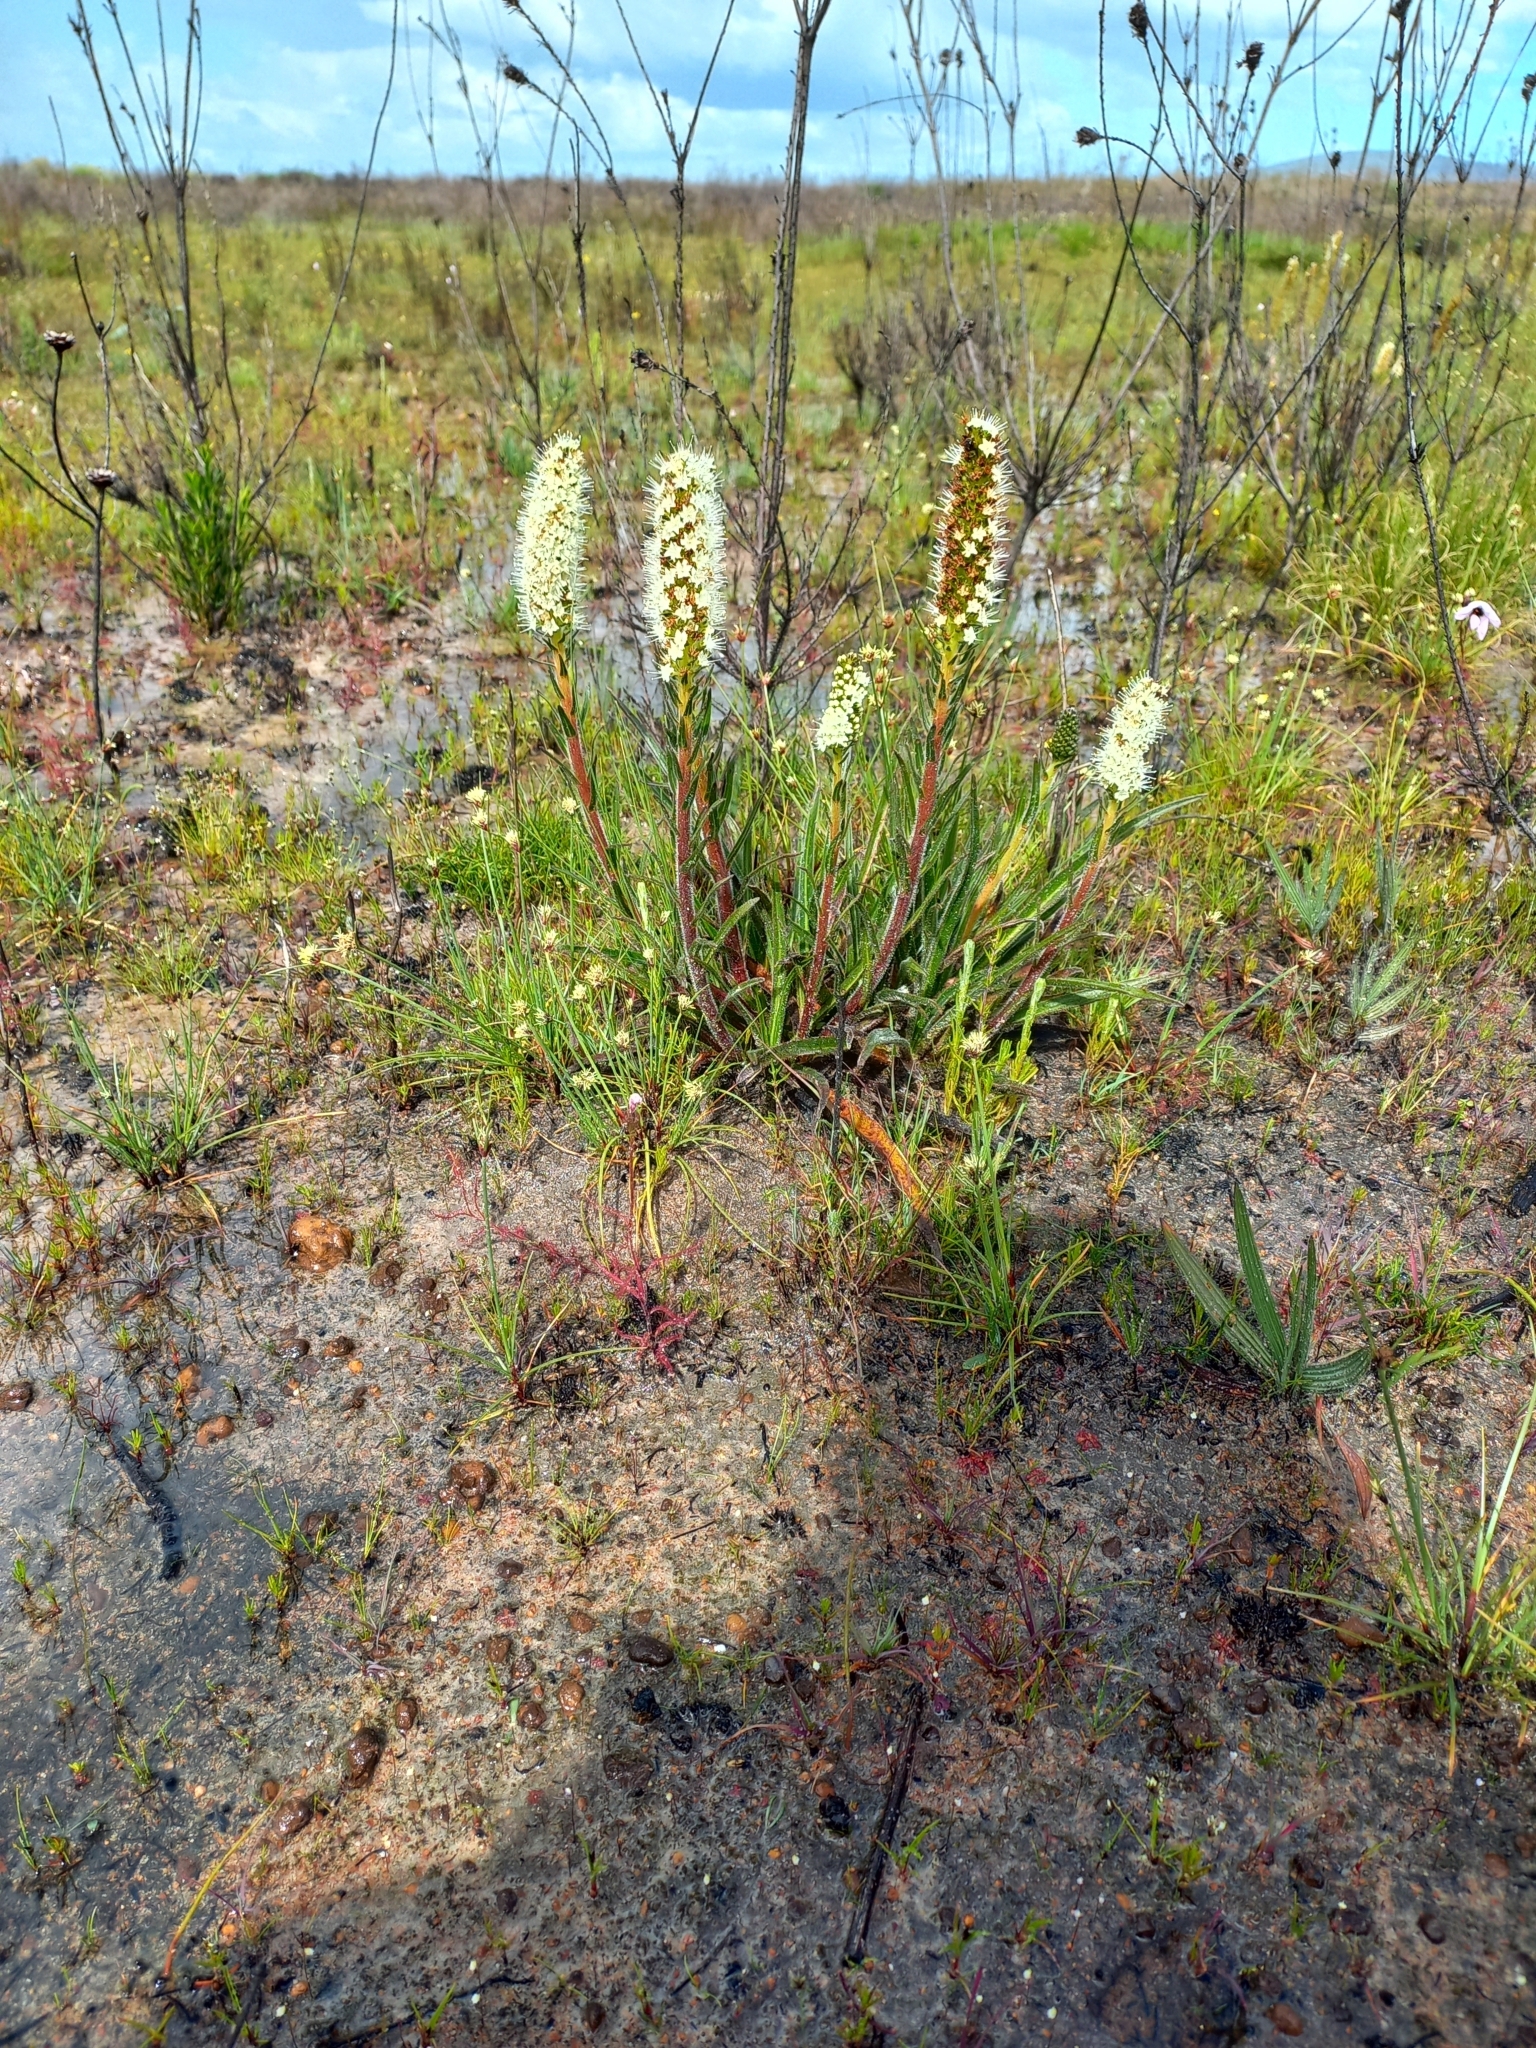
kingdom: Plantae
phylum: Tracheophyta
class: Magnoliopsida
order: Boraginales
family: Boraginaceae
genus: Lobostemon
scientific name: Lobostemon splendens
